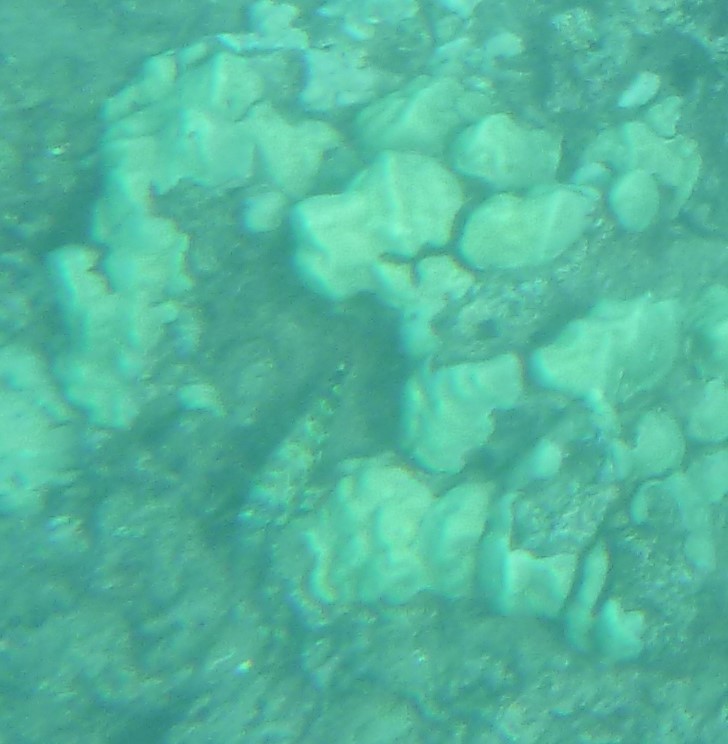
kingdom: Animalia
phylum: Chordata
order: Perciformes
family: Cirrhitidae
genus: Cirrhitus
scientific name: Cirrhitus pinnulatus
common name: Stocky hawkfish
